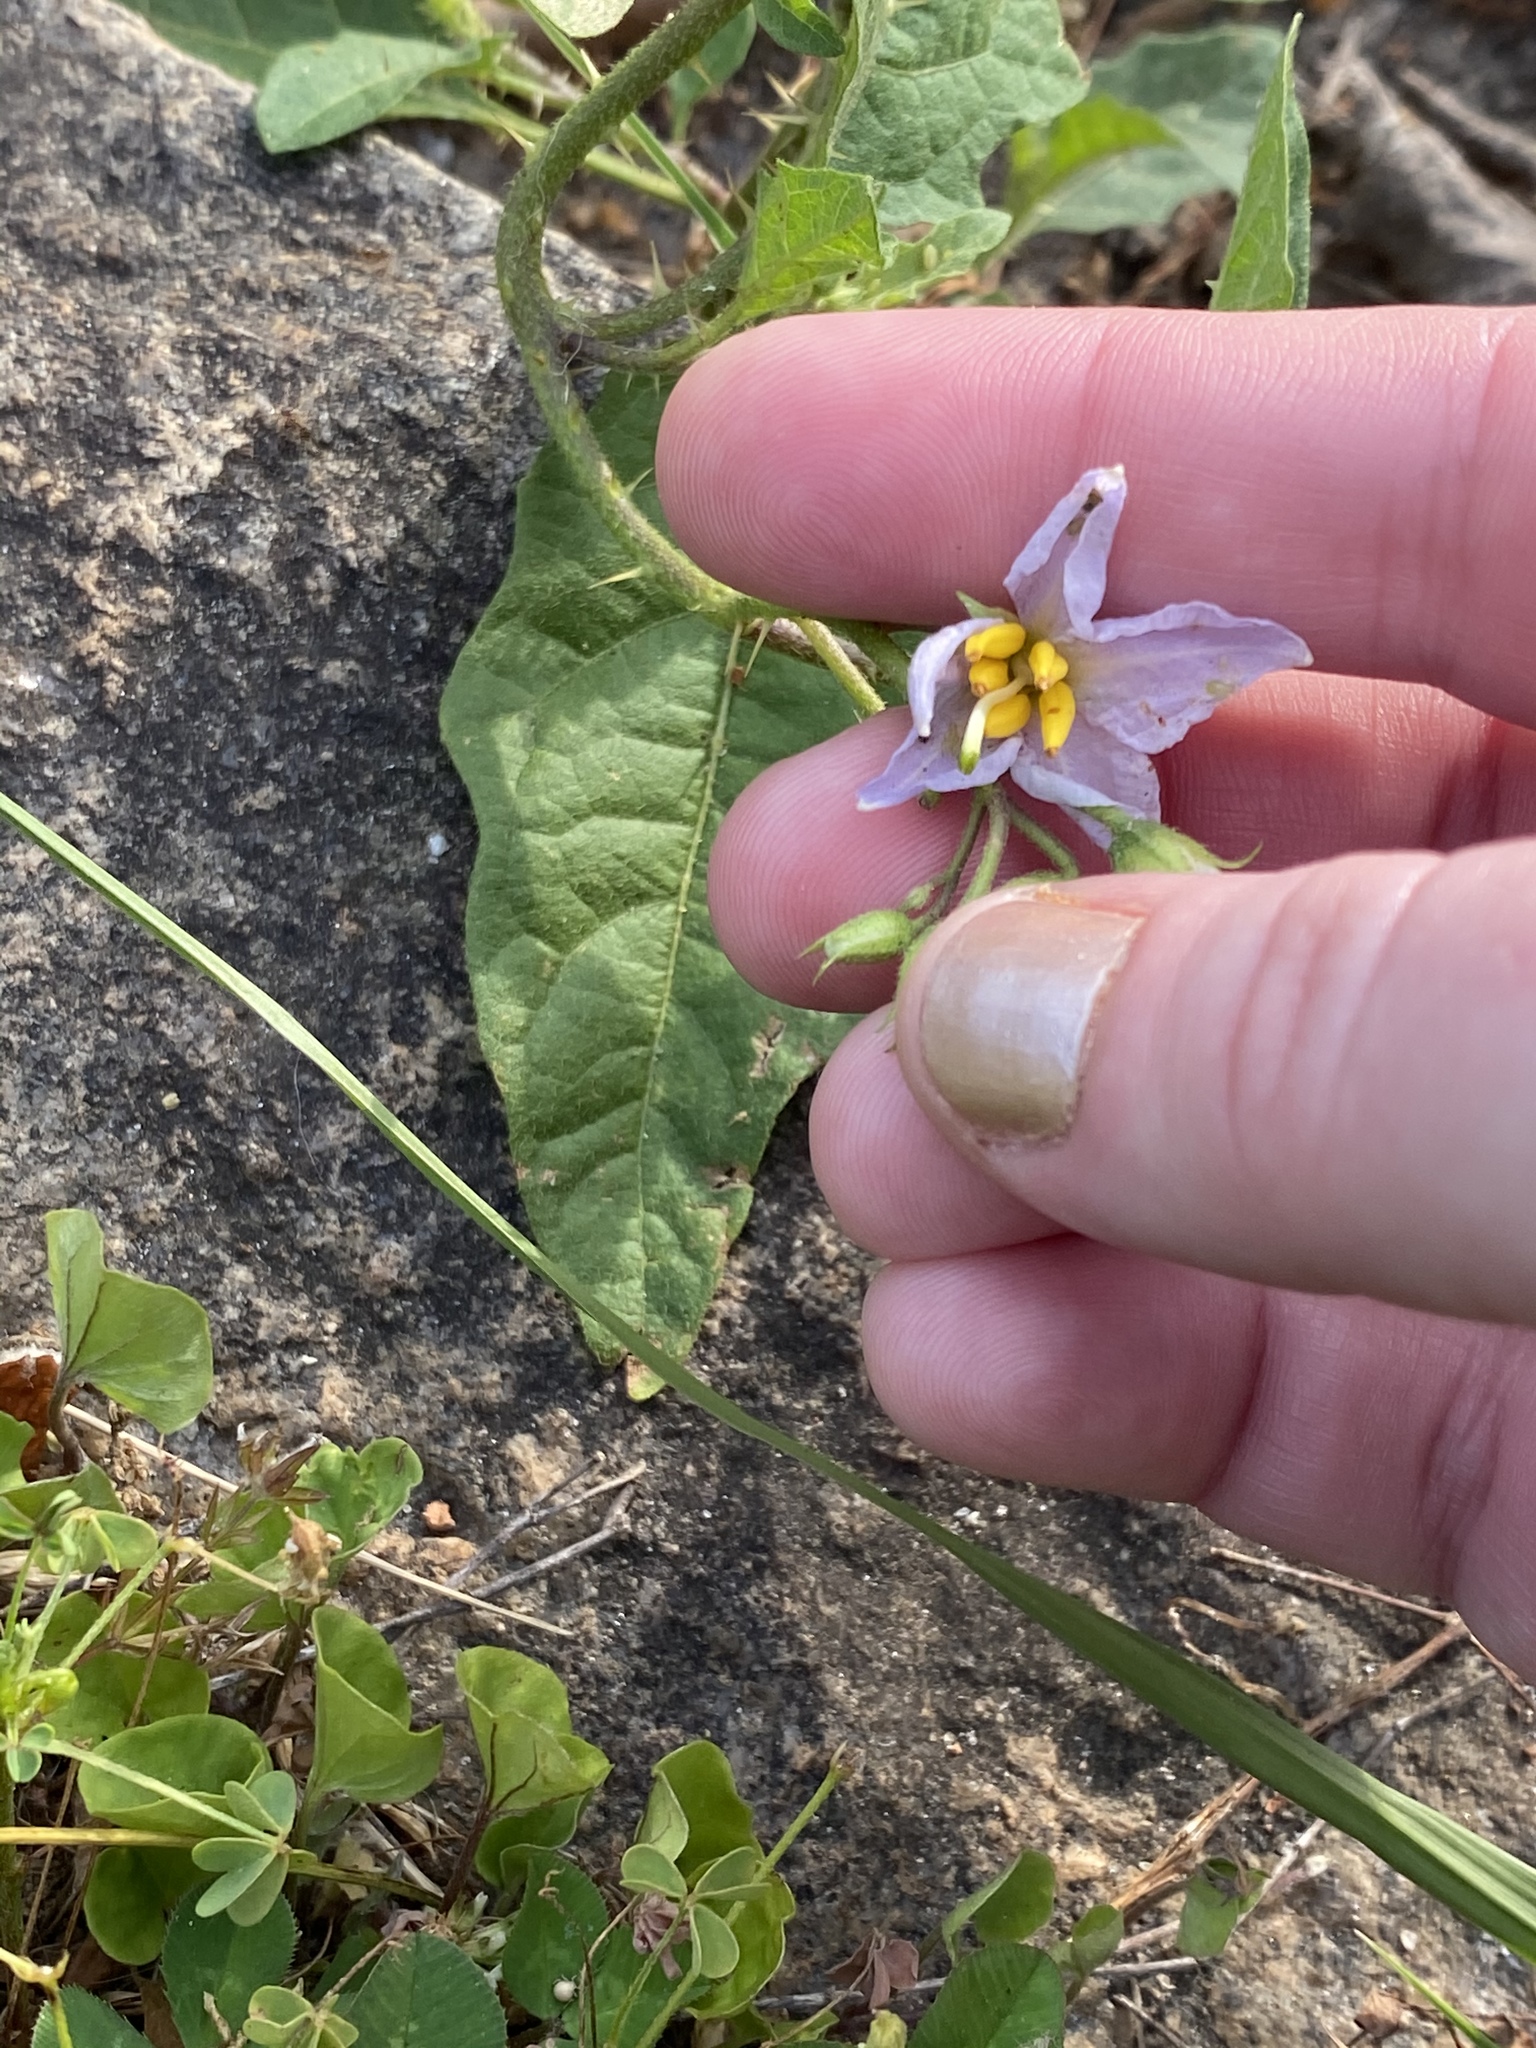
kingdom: Plantae
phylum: Tracheophyta
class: Magnoliopsida
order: Solanales
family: Solanaceae
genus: Solanum
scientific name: Solanum carolinense
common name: Horse-nettle
